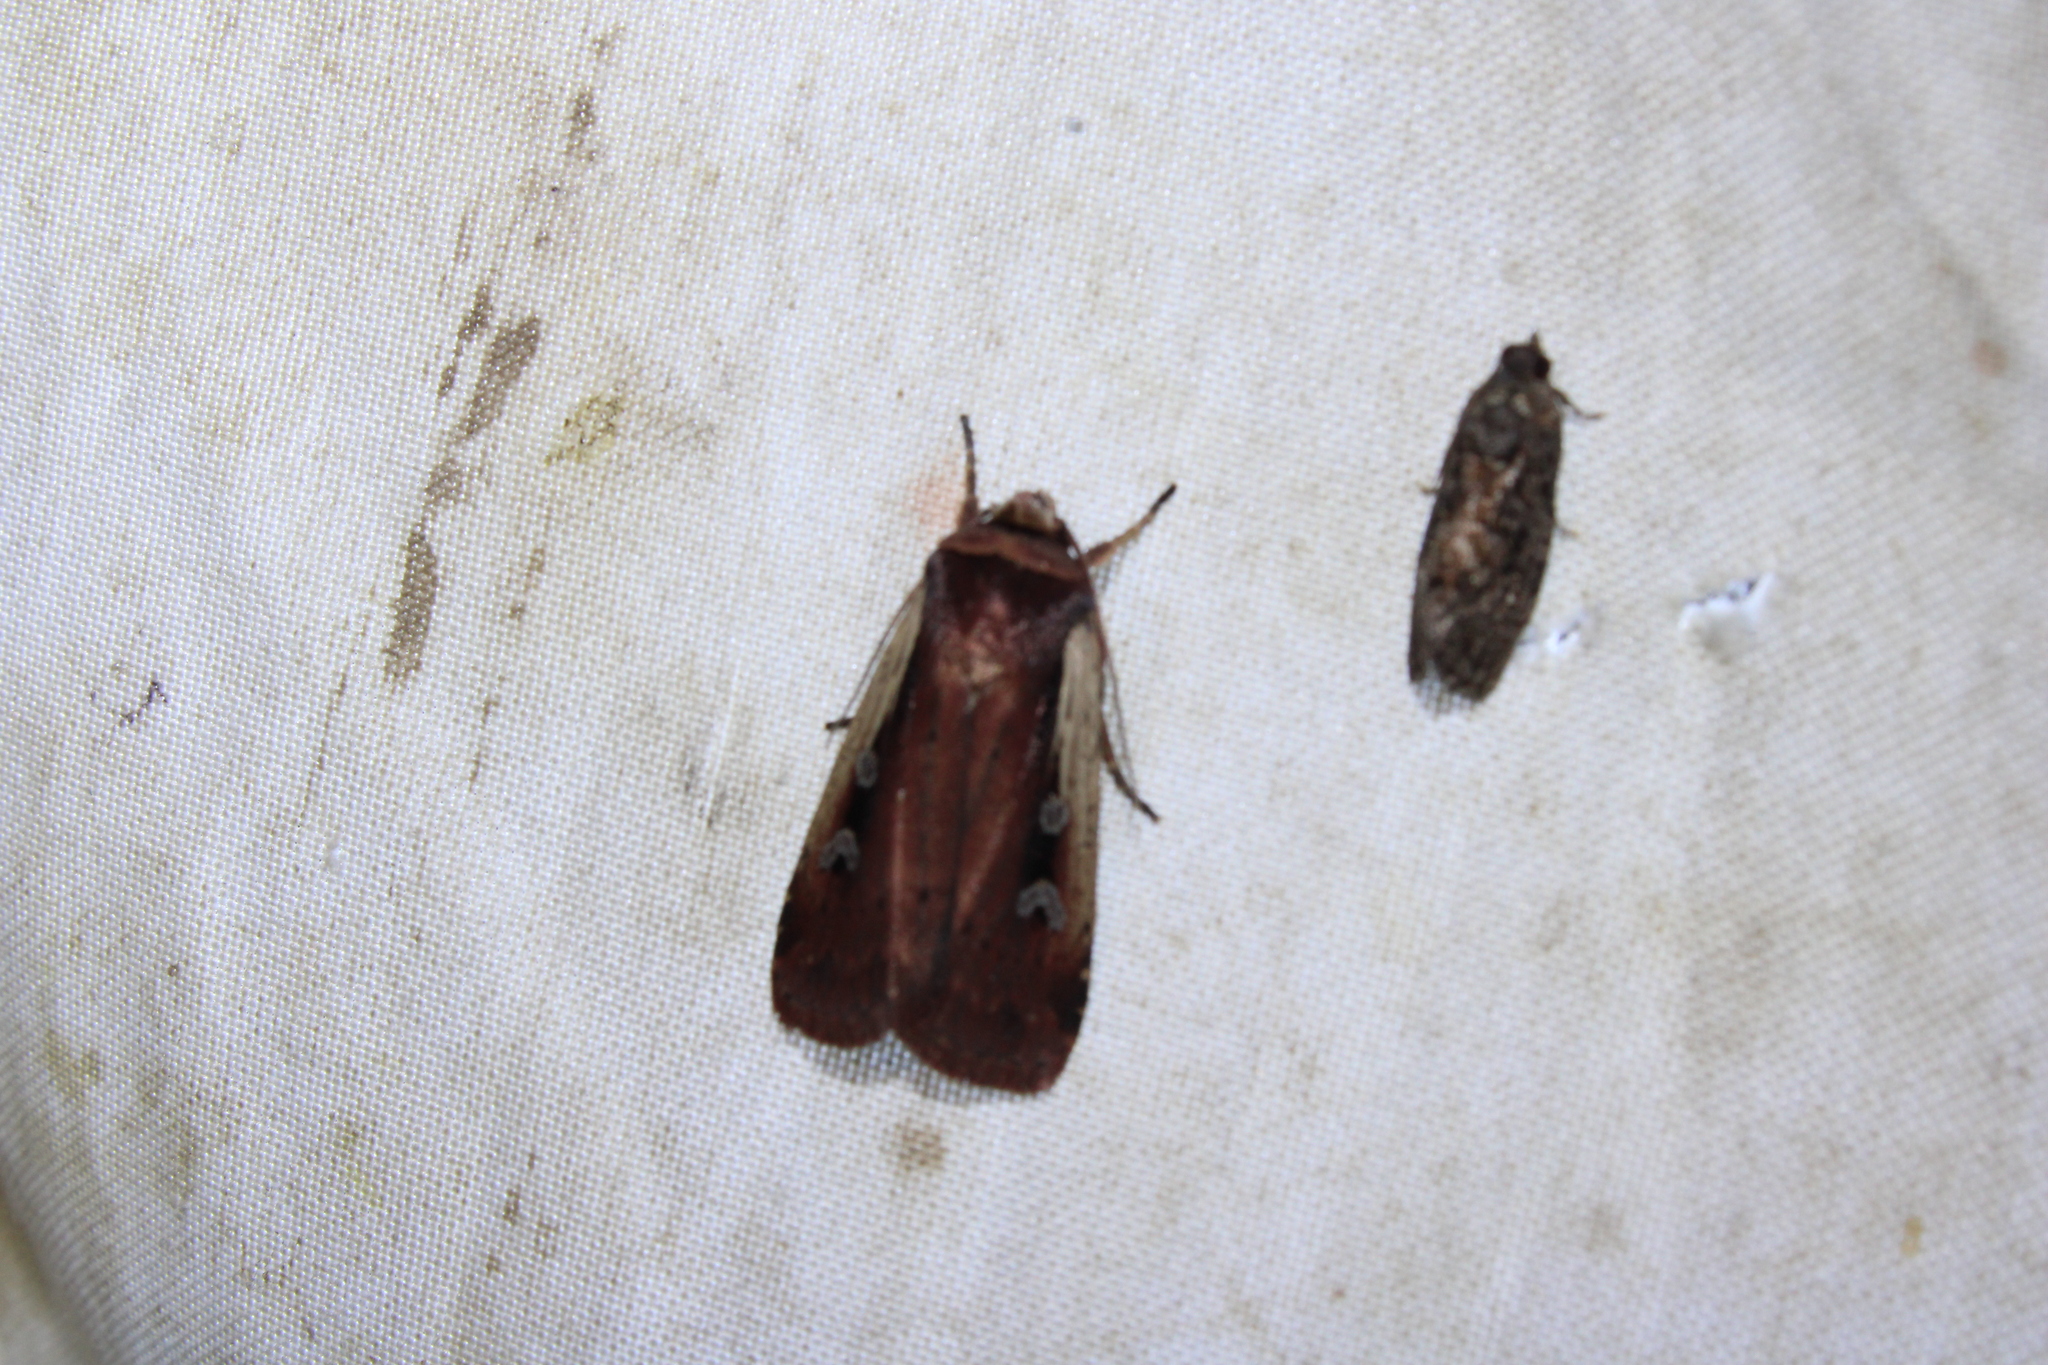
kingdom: Animalia
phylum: Arthropoda
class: Insecta
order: Lepidoptera
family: Noctuidae
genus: Ochropleura
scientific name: Ochropleura implecta
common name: Flame-shouldered dart
